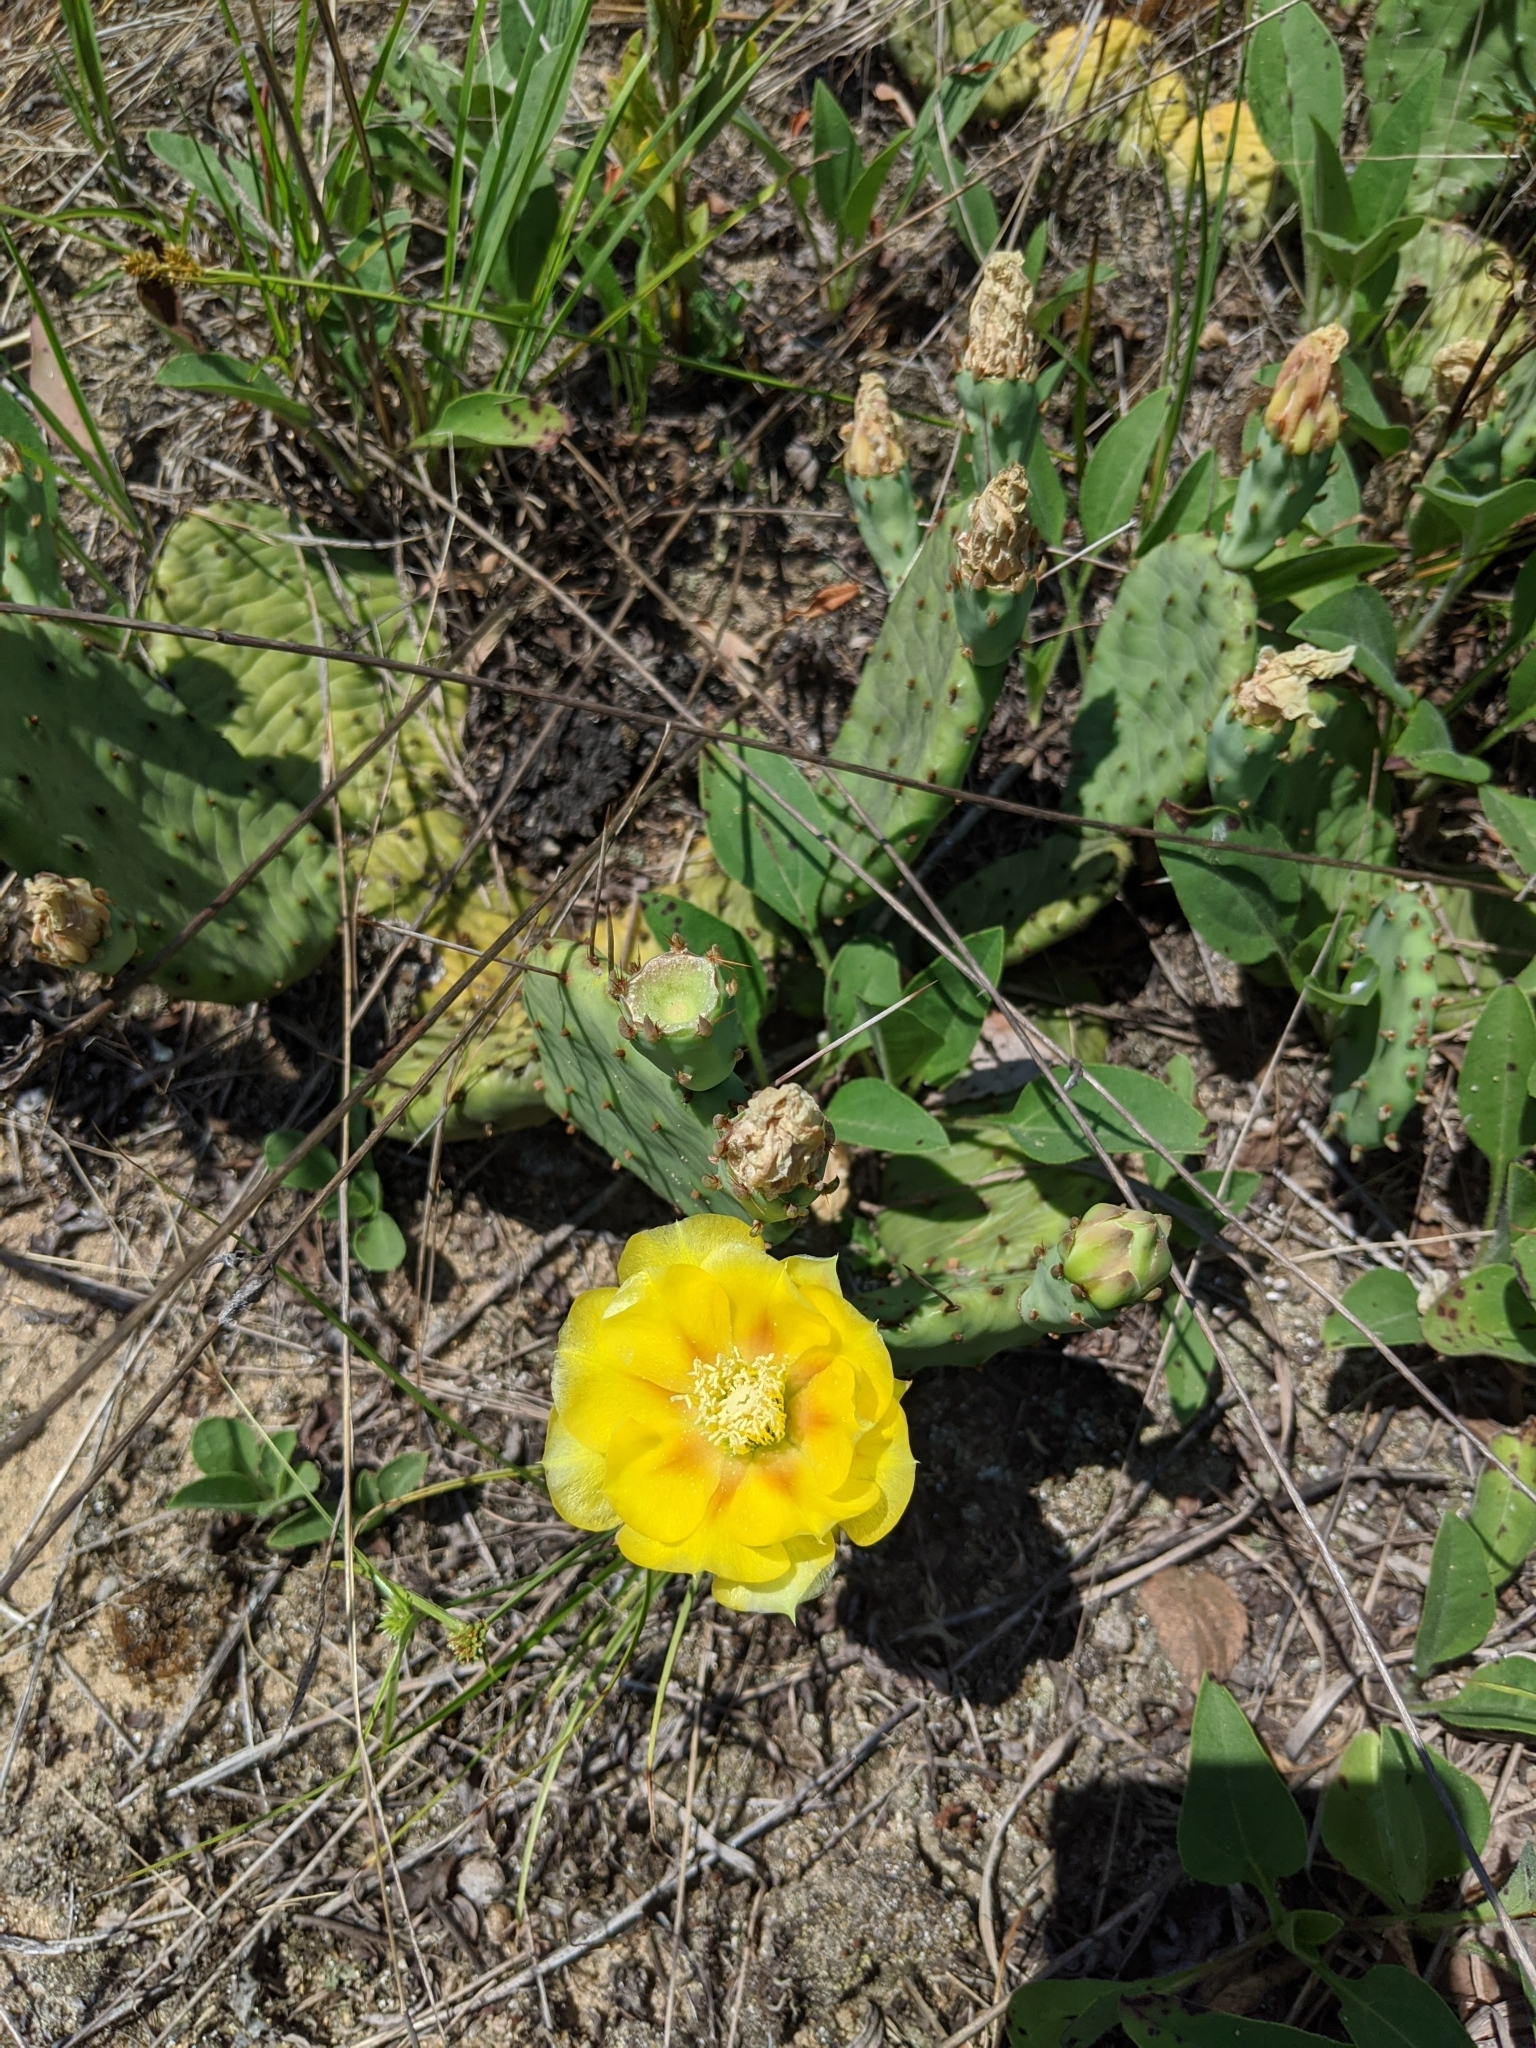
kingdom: Plantae
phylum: Tracheophyta
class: Magnoliopsida
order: Caryophyllales
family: Cactaceae
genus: Opuntia
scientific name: Opuntia humifusa
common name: Eastern prickly-pear
